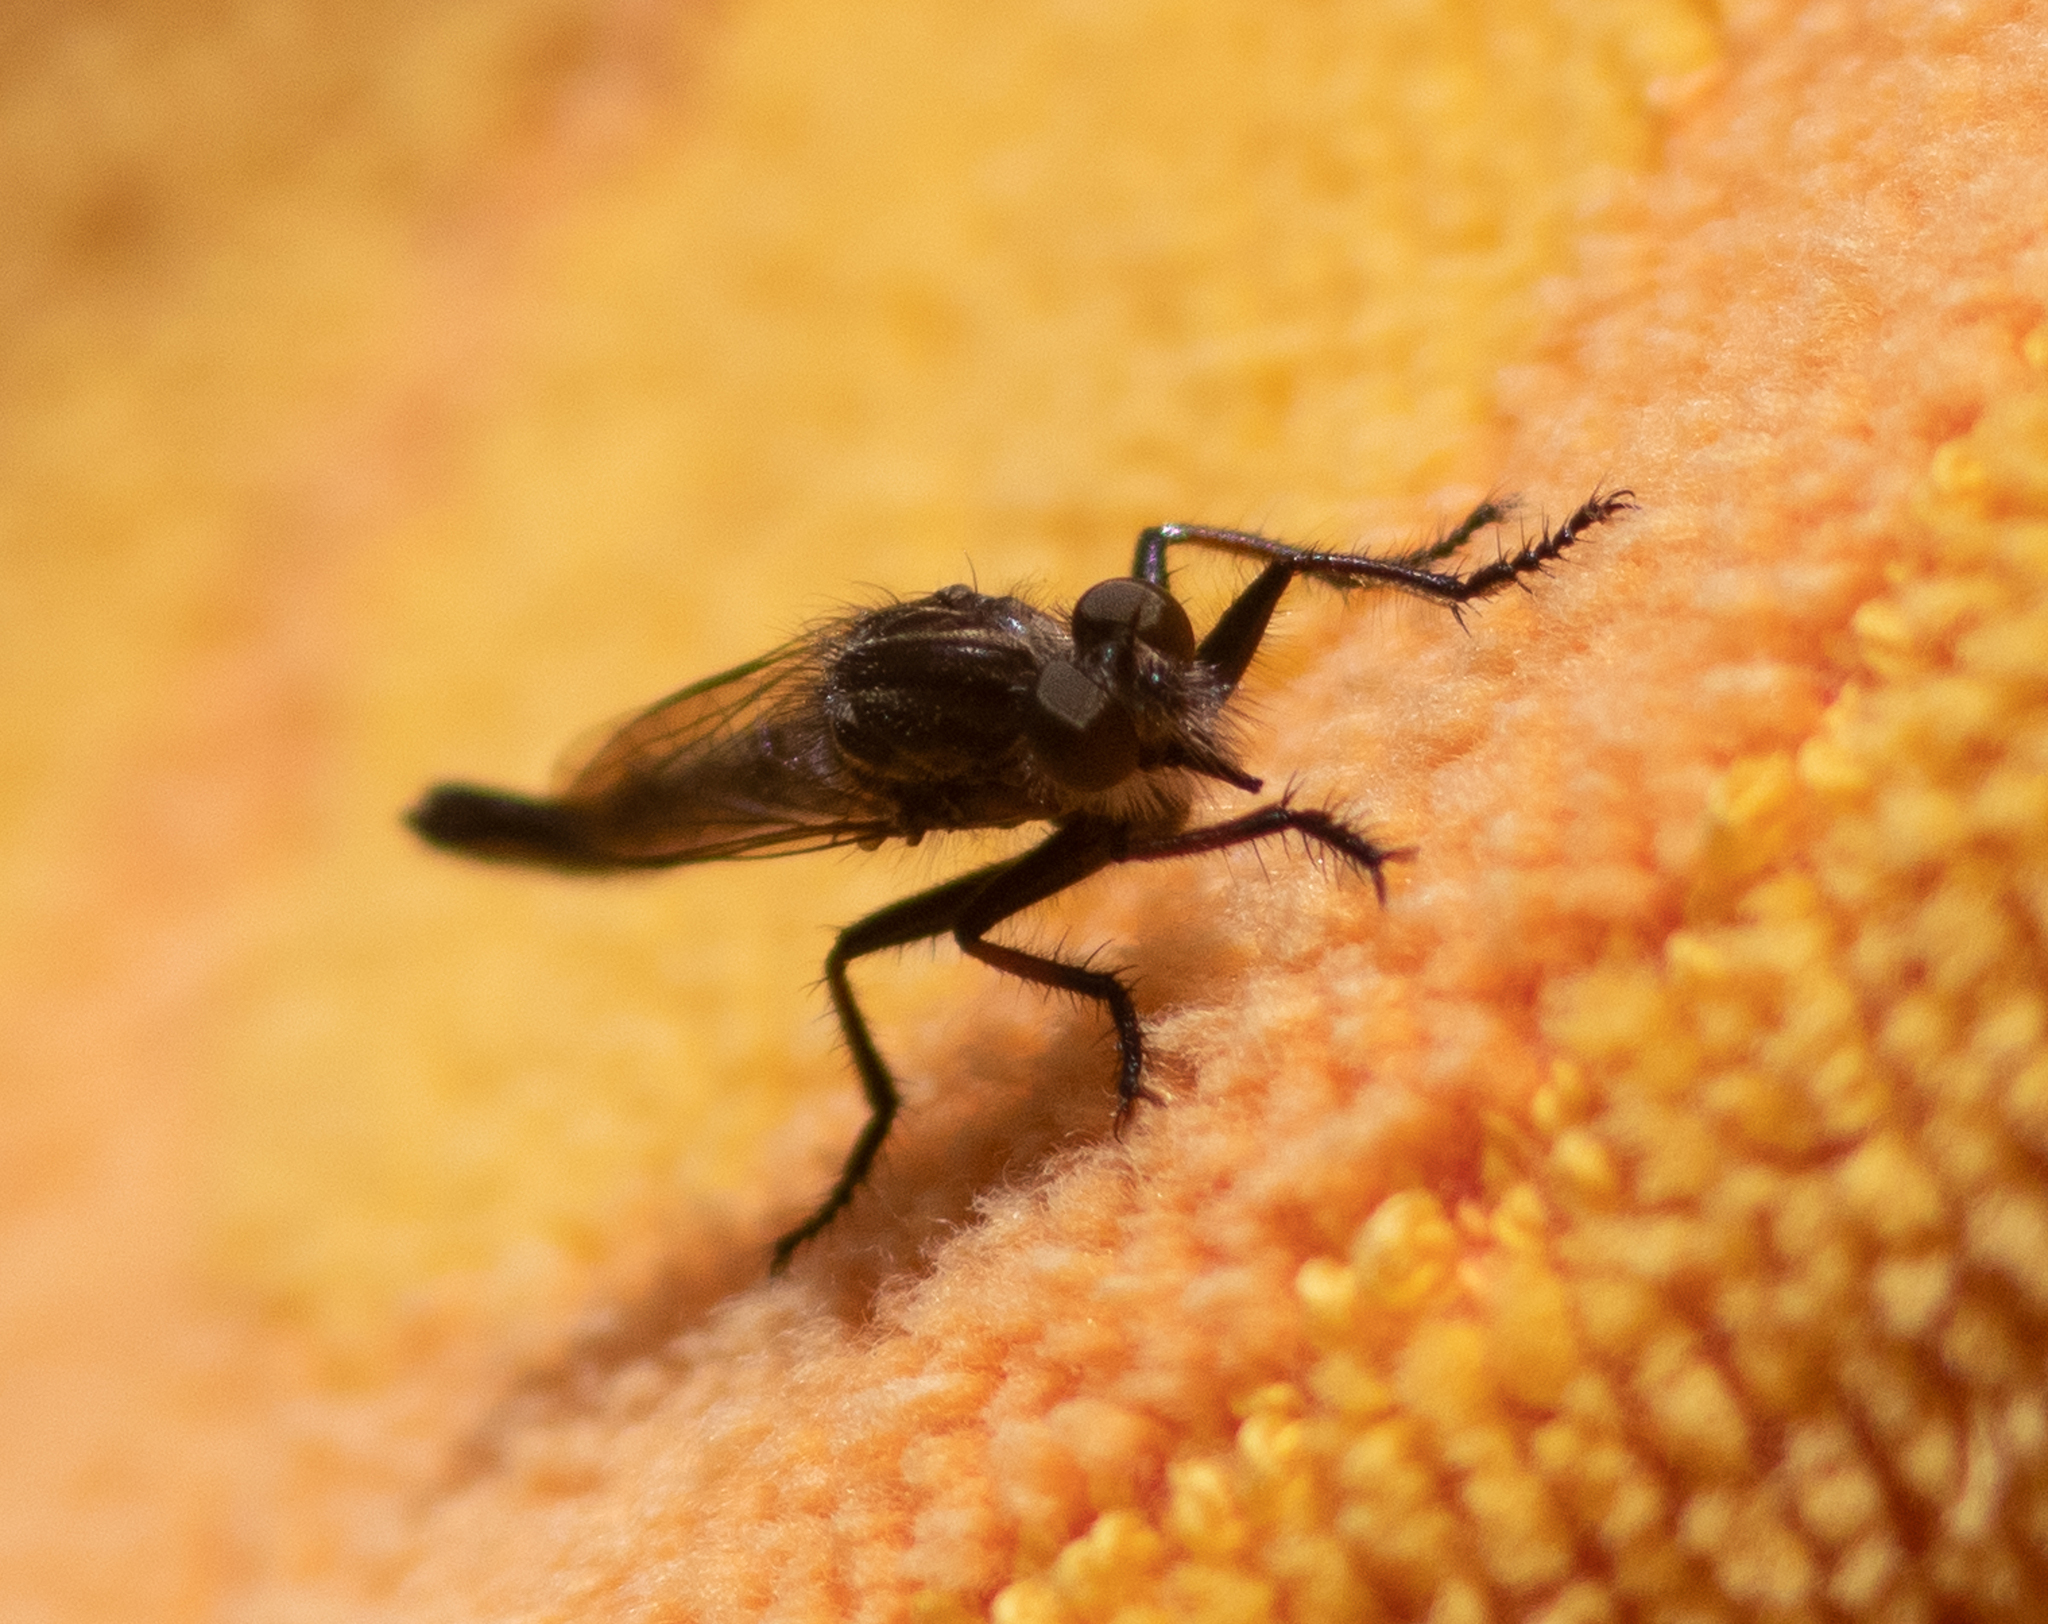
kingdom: Animalia
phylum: Arthropoda
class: Insecta
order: Diptera
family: Asilidae
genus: Efferia
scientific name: Efferia aestuans
